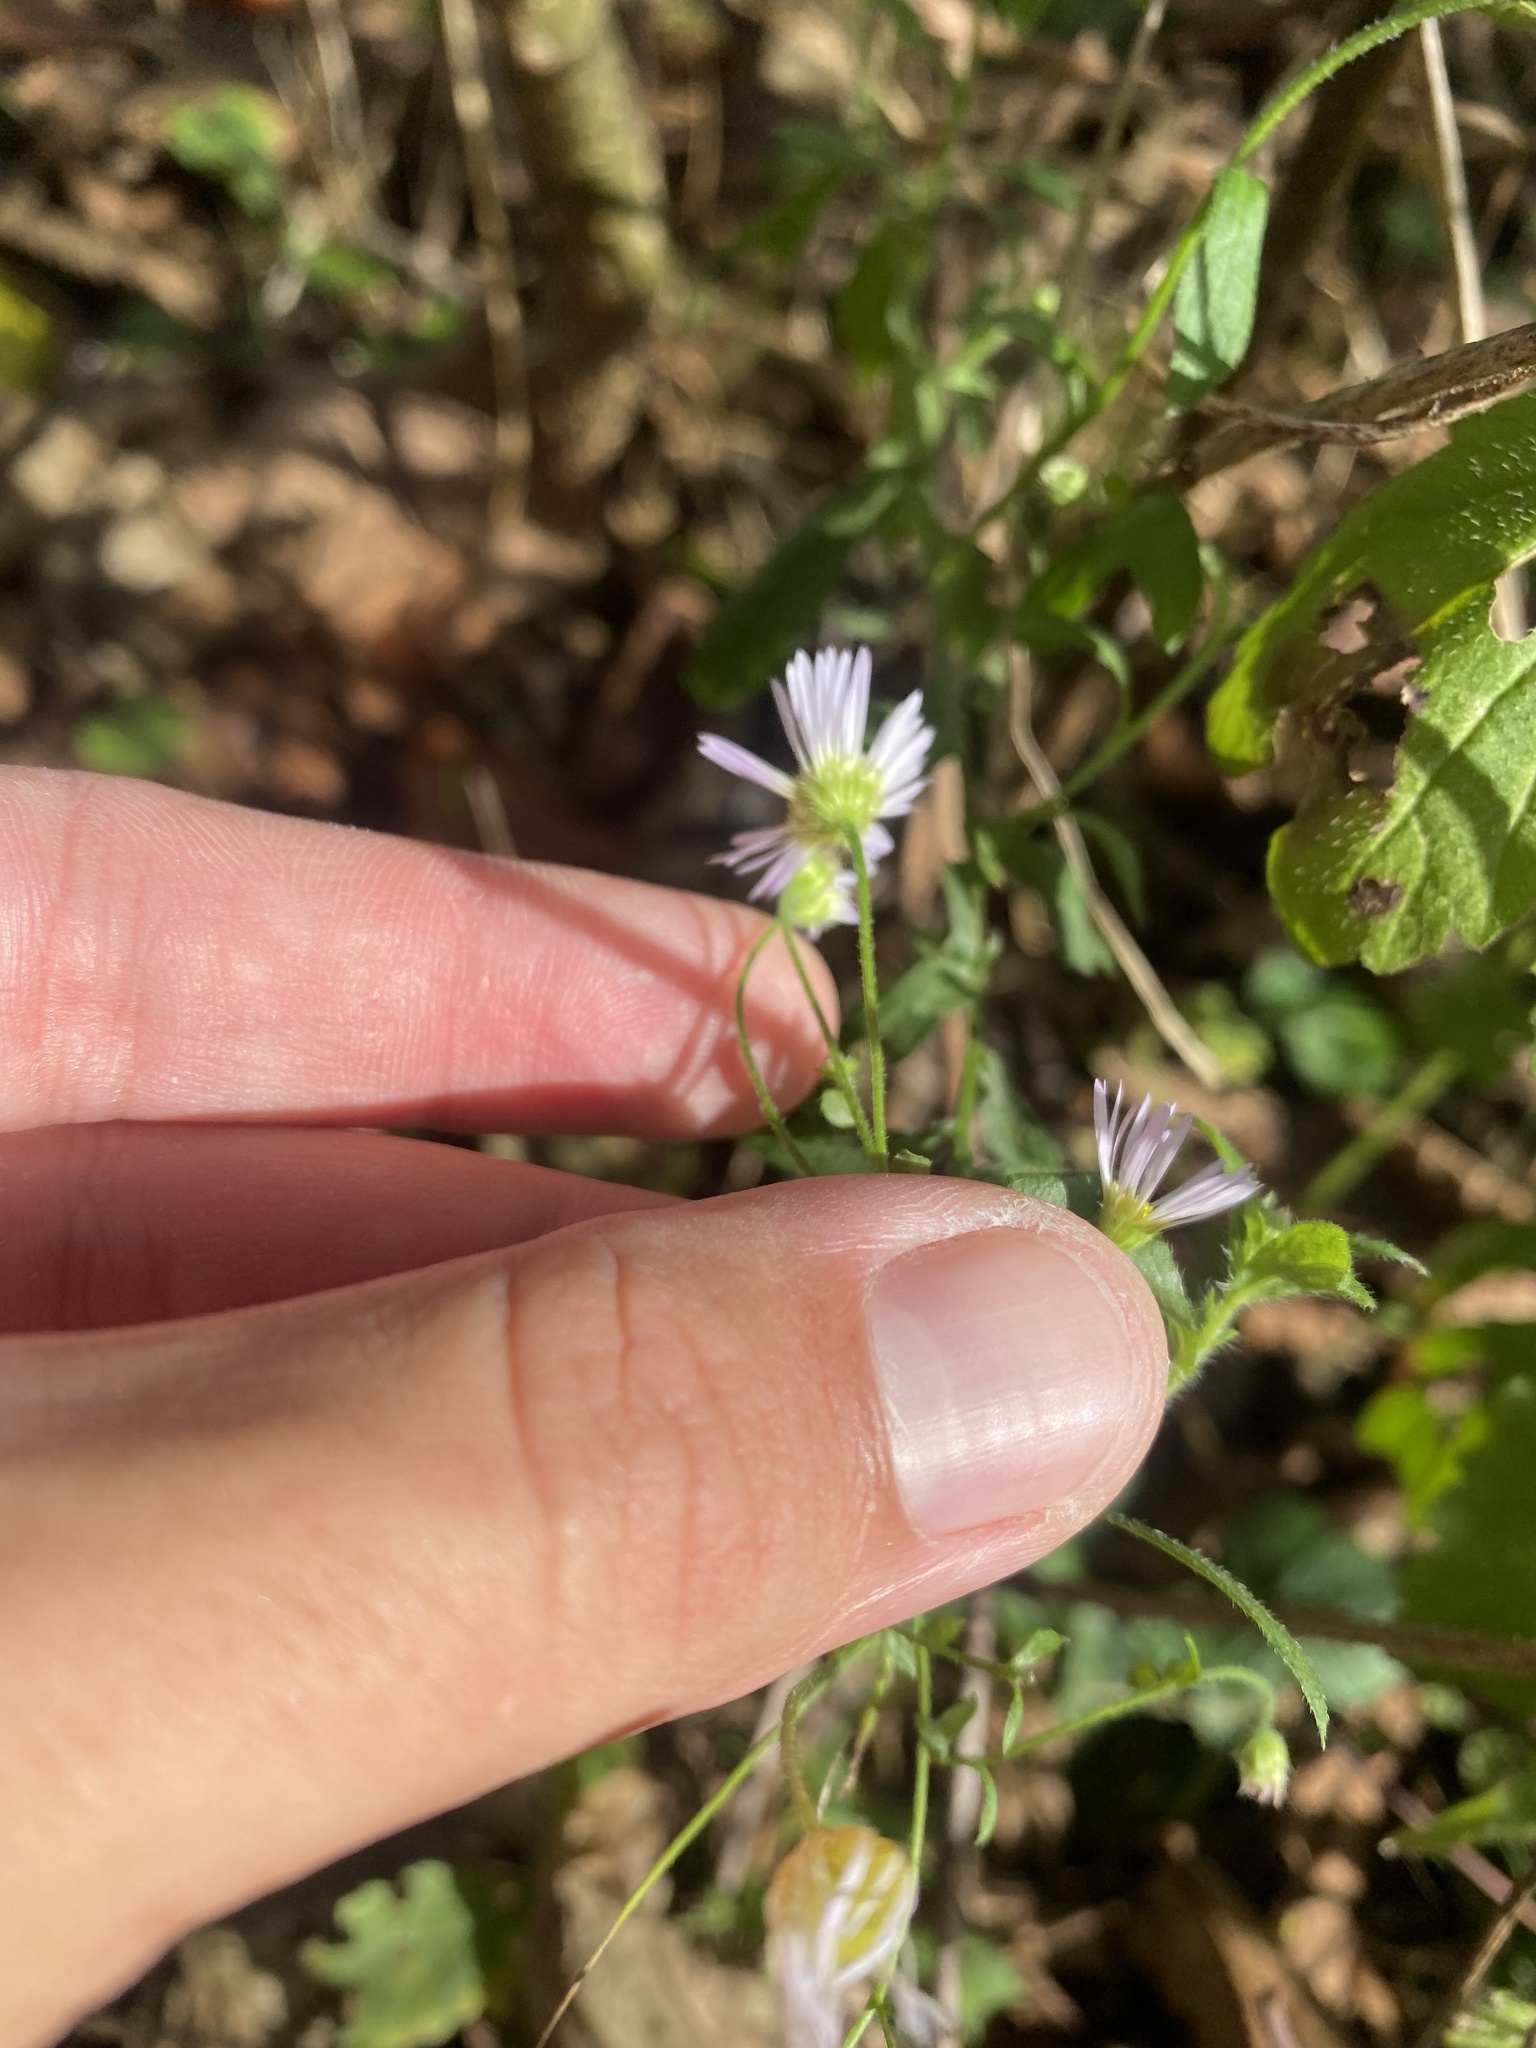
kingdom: Plantae
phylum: Tracheophyta
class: Magnoliopsida
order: Asterales
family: Asteraceae
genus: Erigeron
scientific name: Erigeron annuus
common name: Tall fleabane
